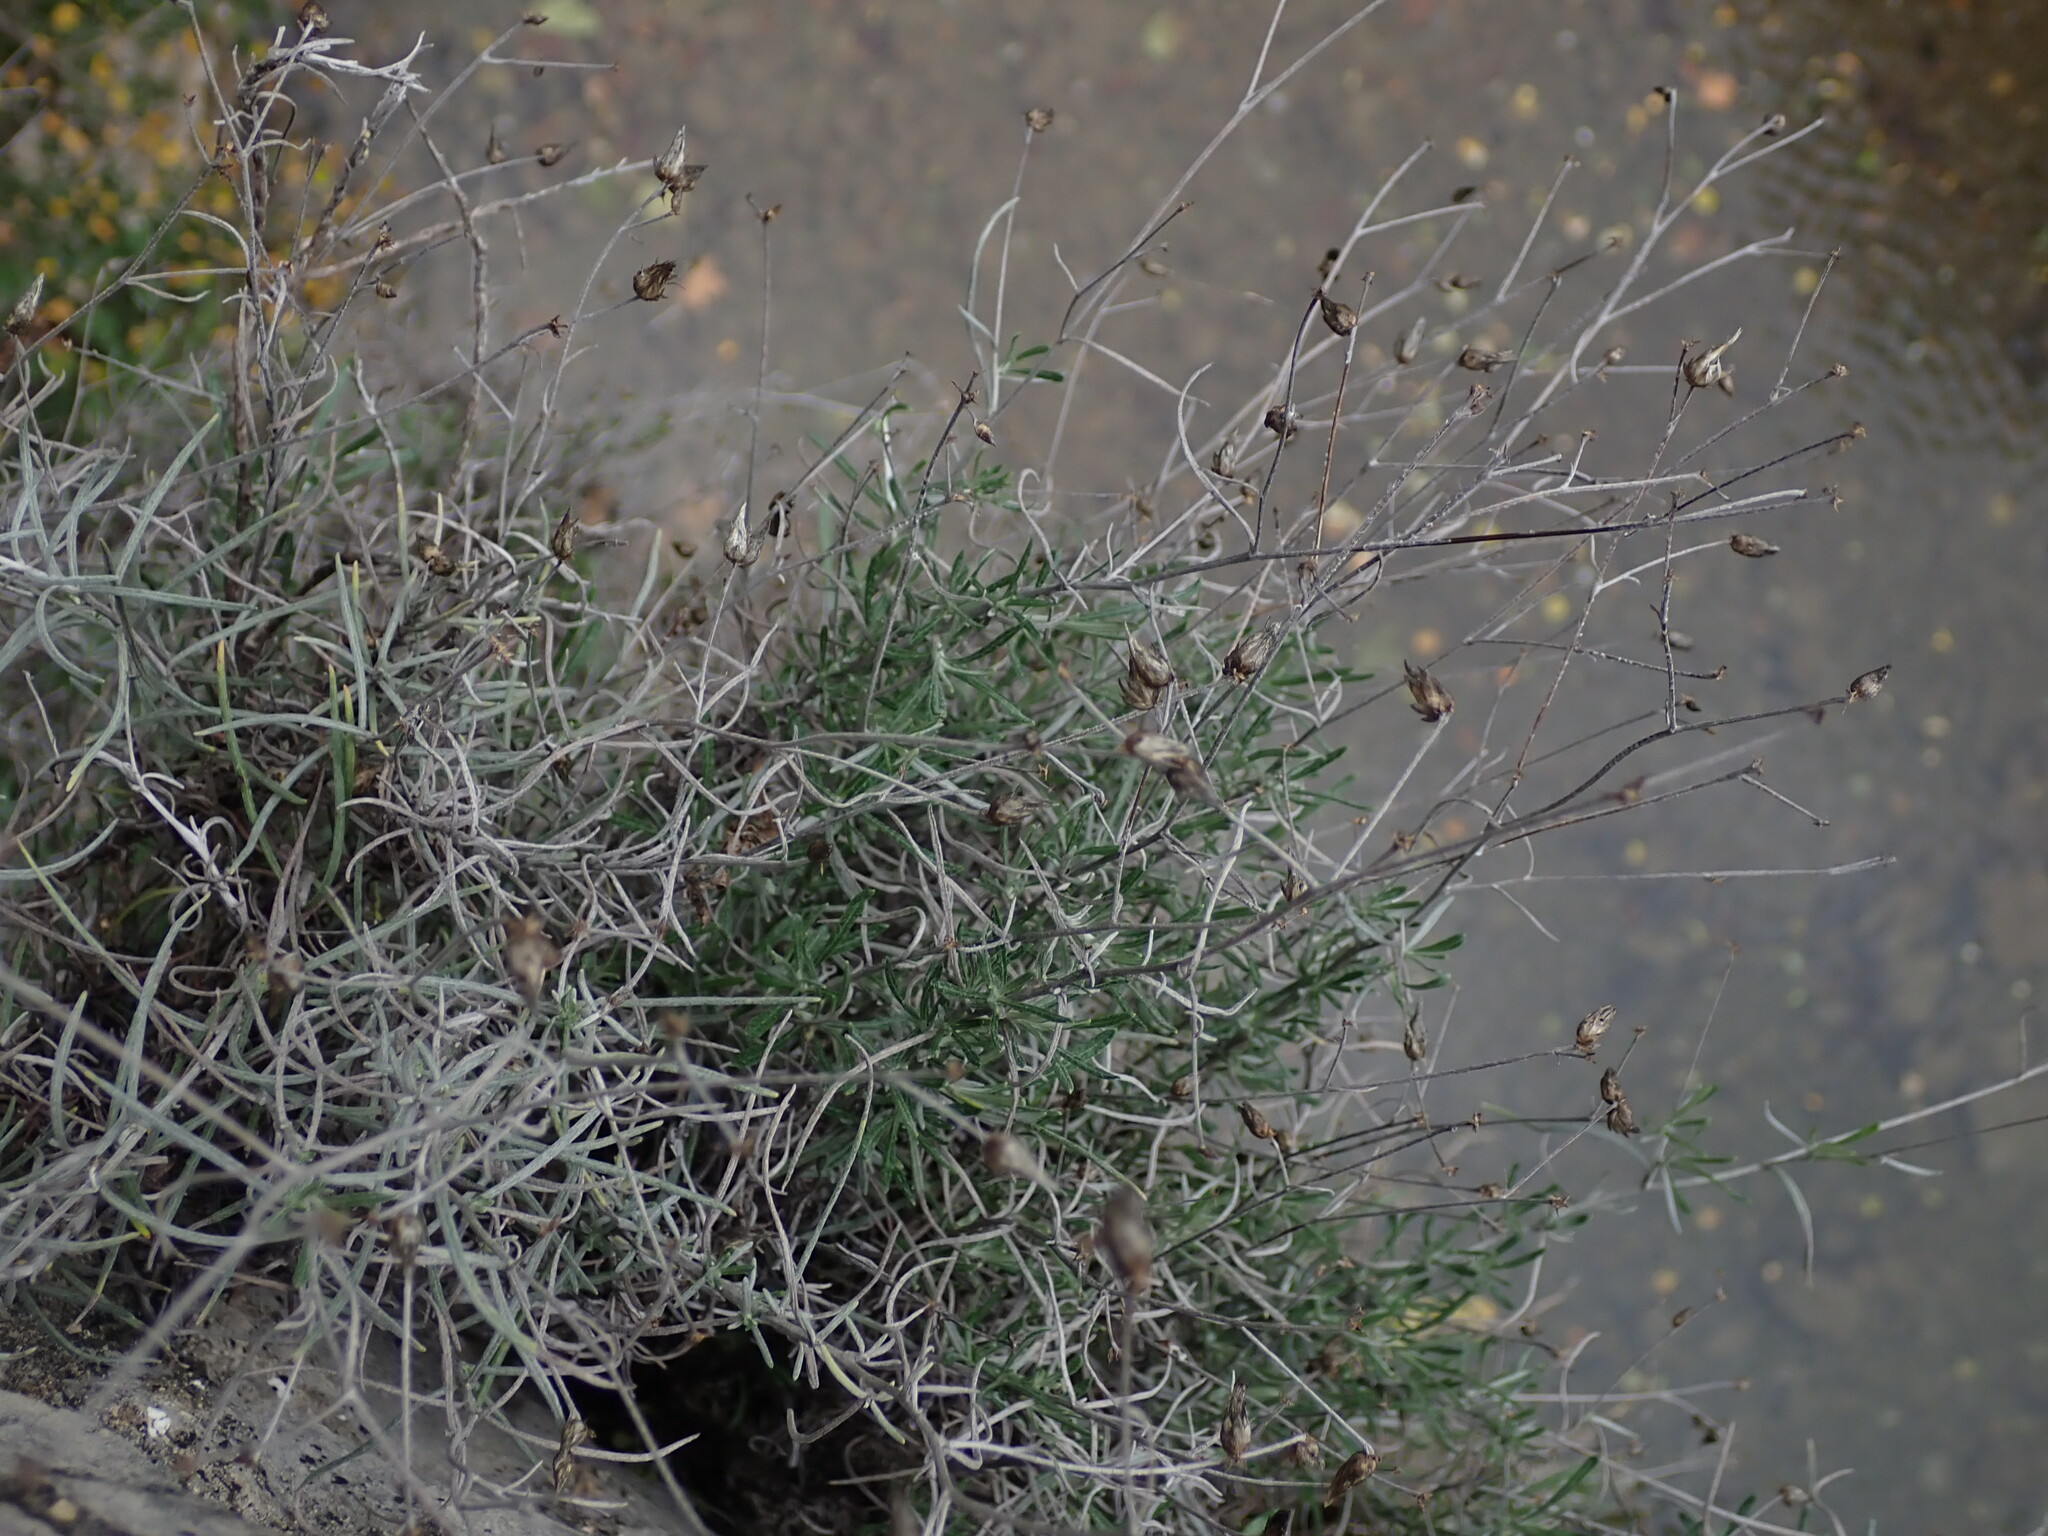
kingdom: Plantae
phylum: Tracheophyta
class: Magnoliopsida
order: Asterales
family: Asteraceae
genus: Phagnalon
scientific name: Phagnalon sordidum
